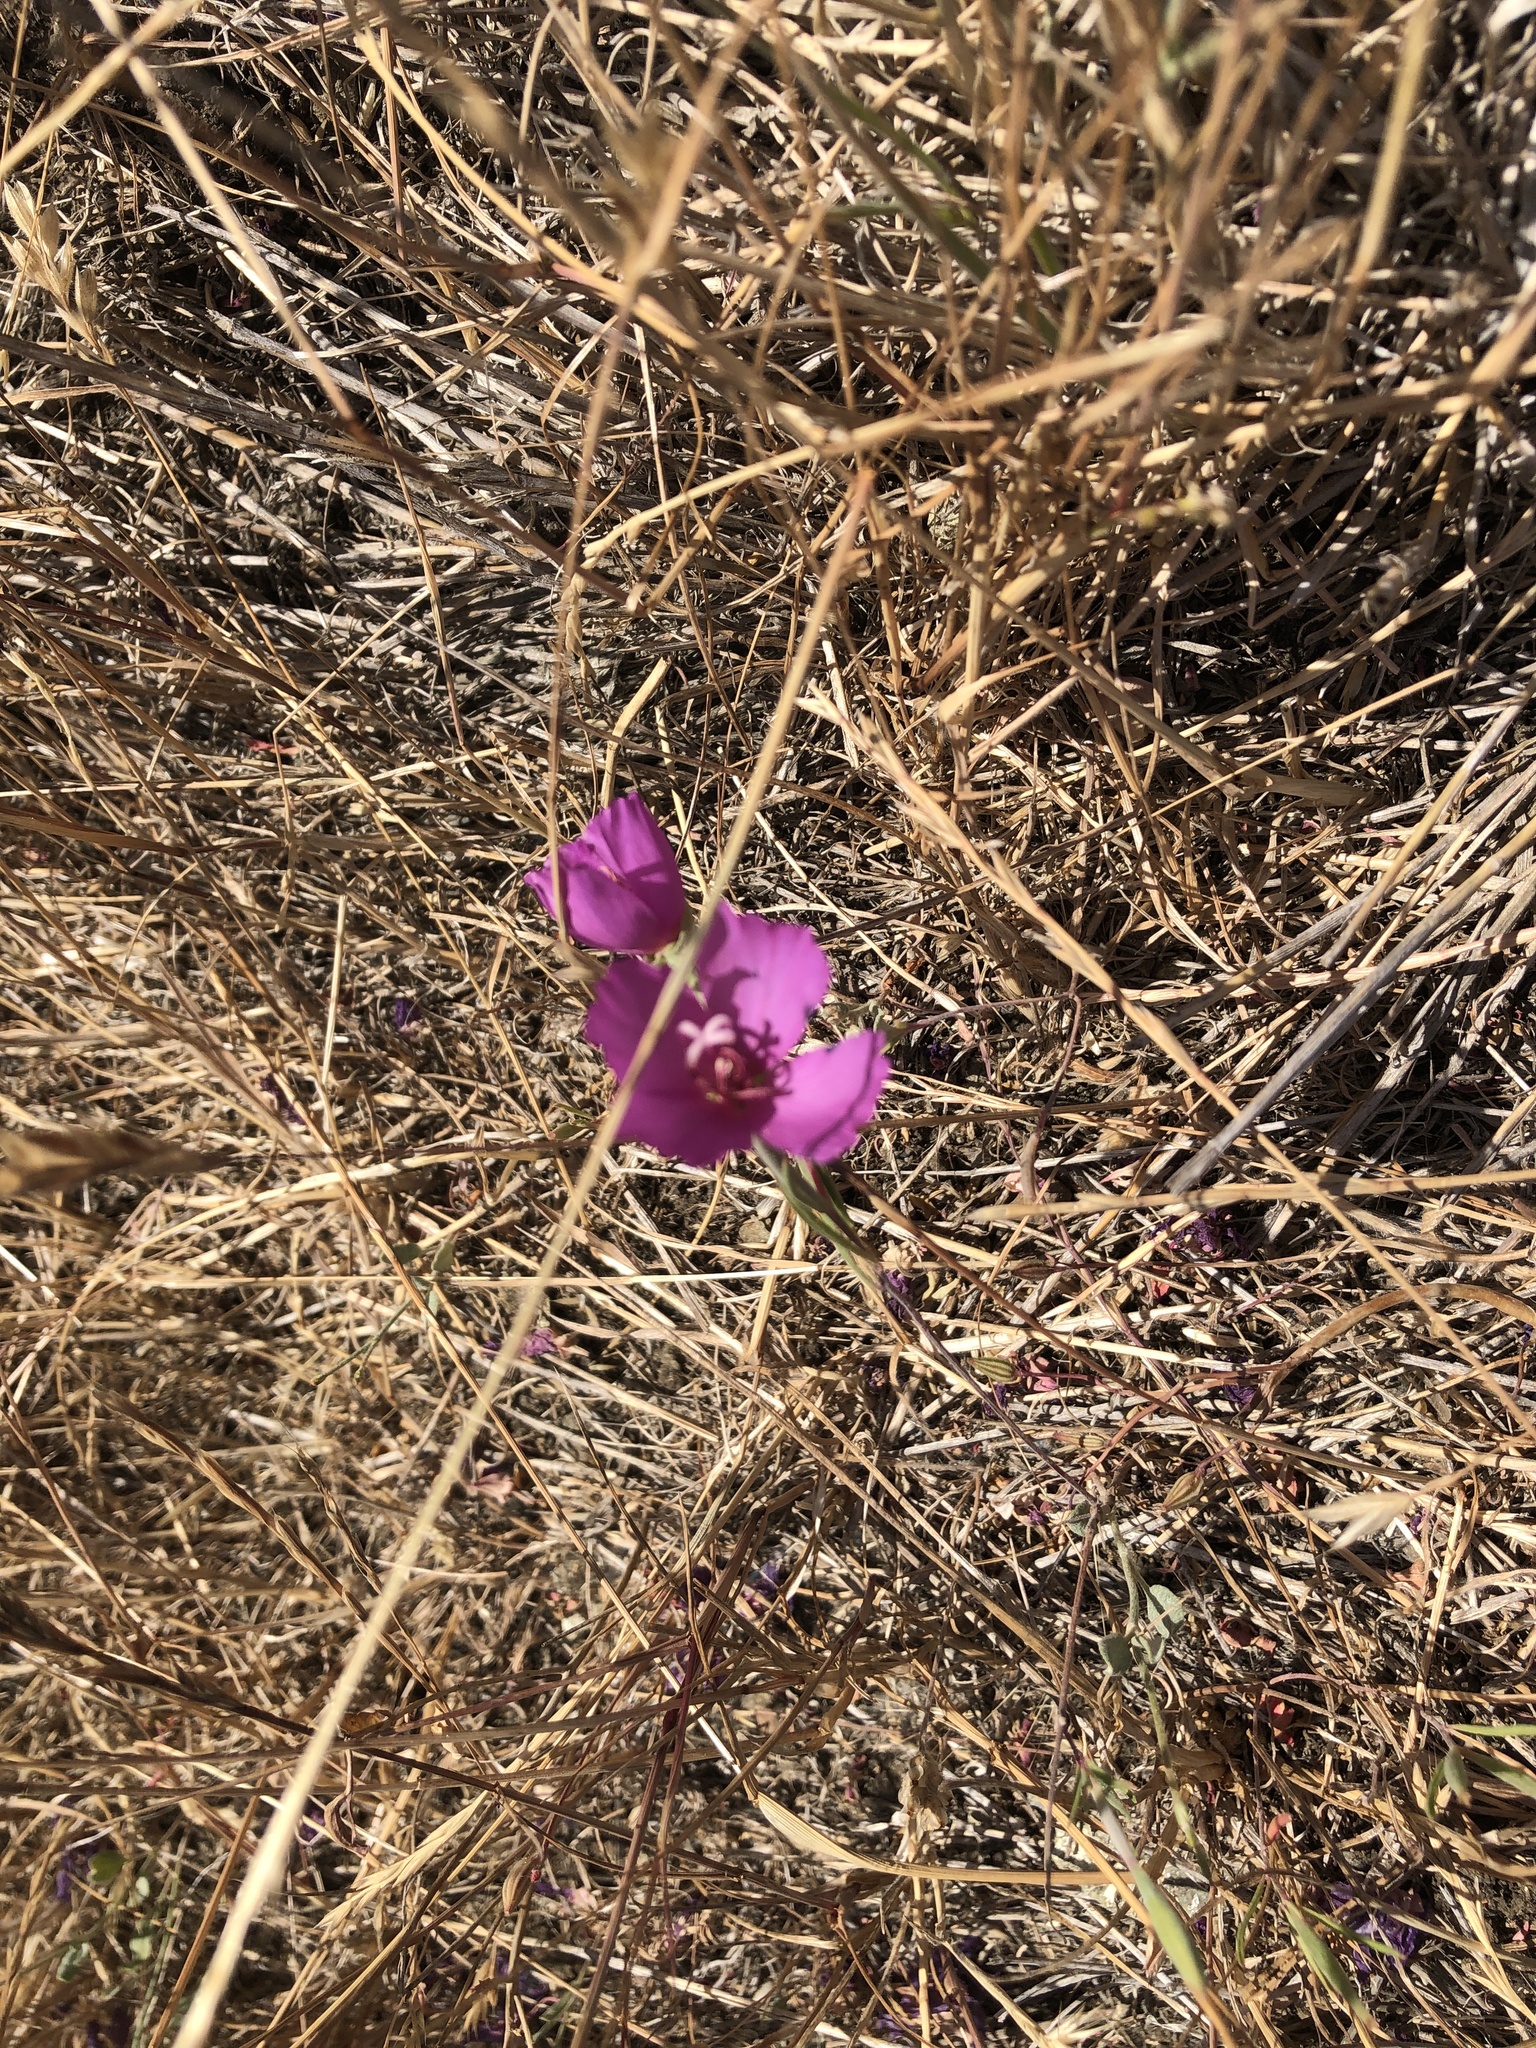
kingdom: Plantae
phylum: Tracheophyta
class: Magnoliopsida
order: Myrtales
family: Onagraceae
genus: Clarkia
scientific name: Clarkia rubicunda
